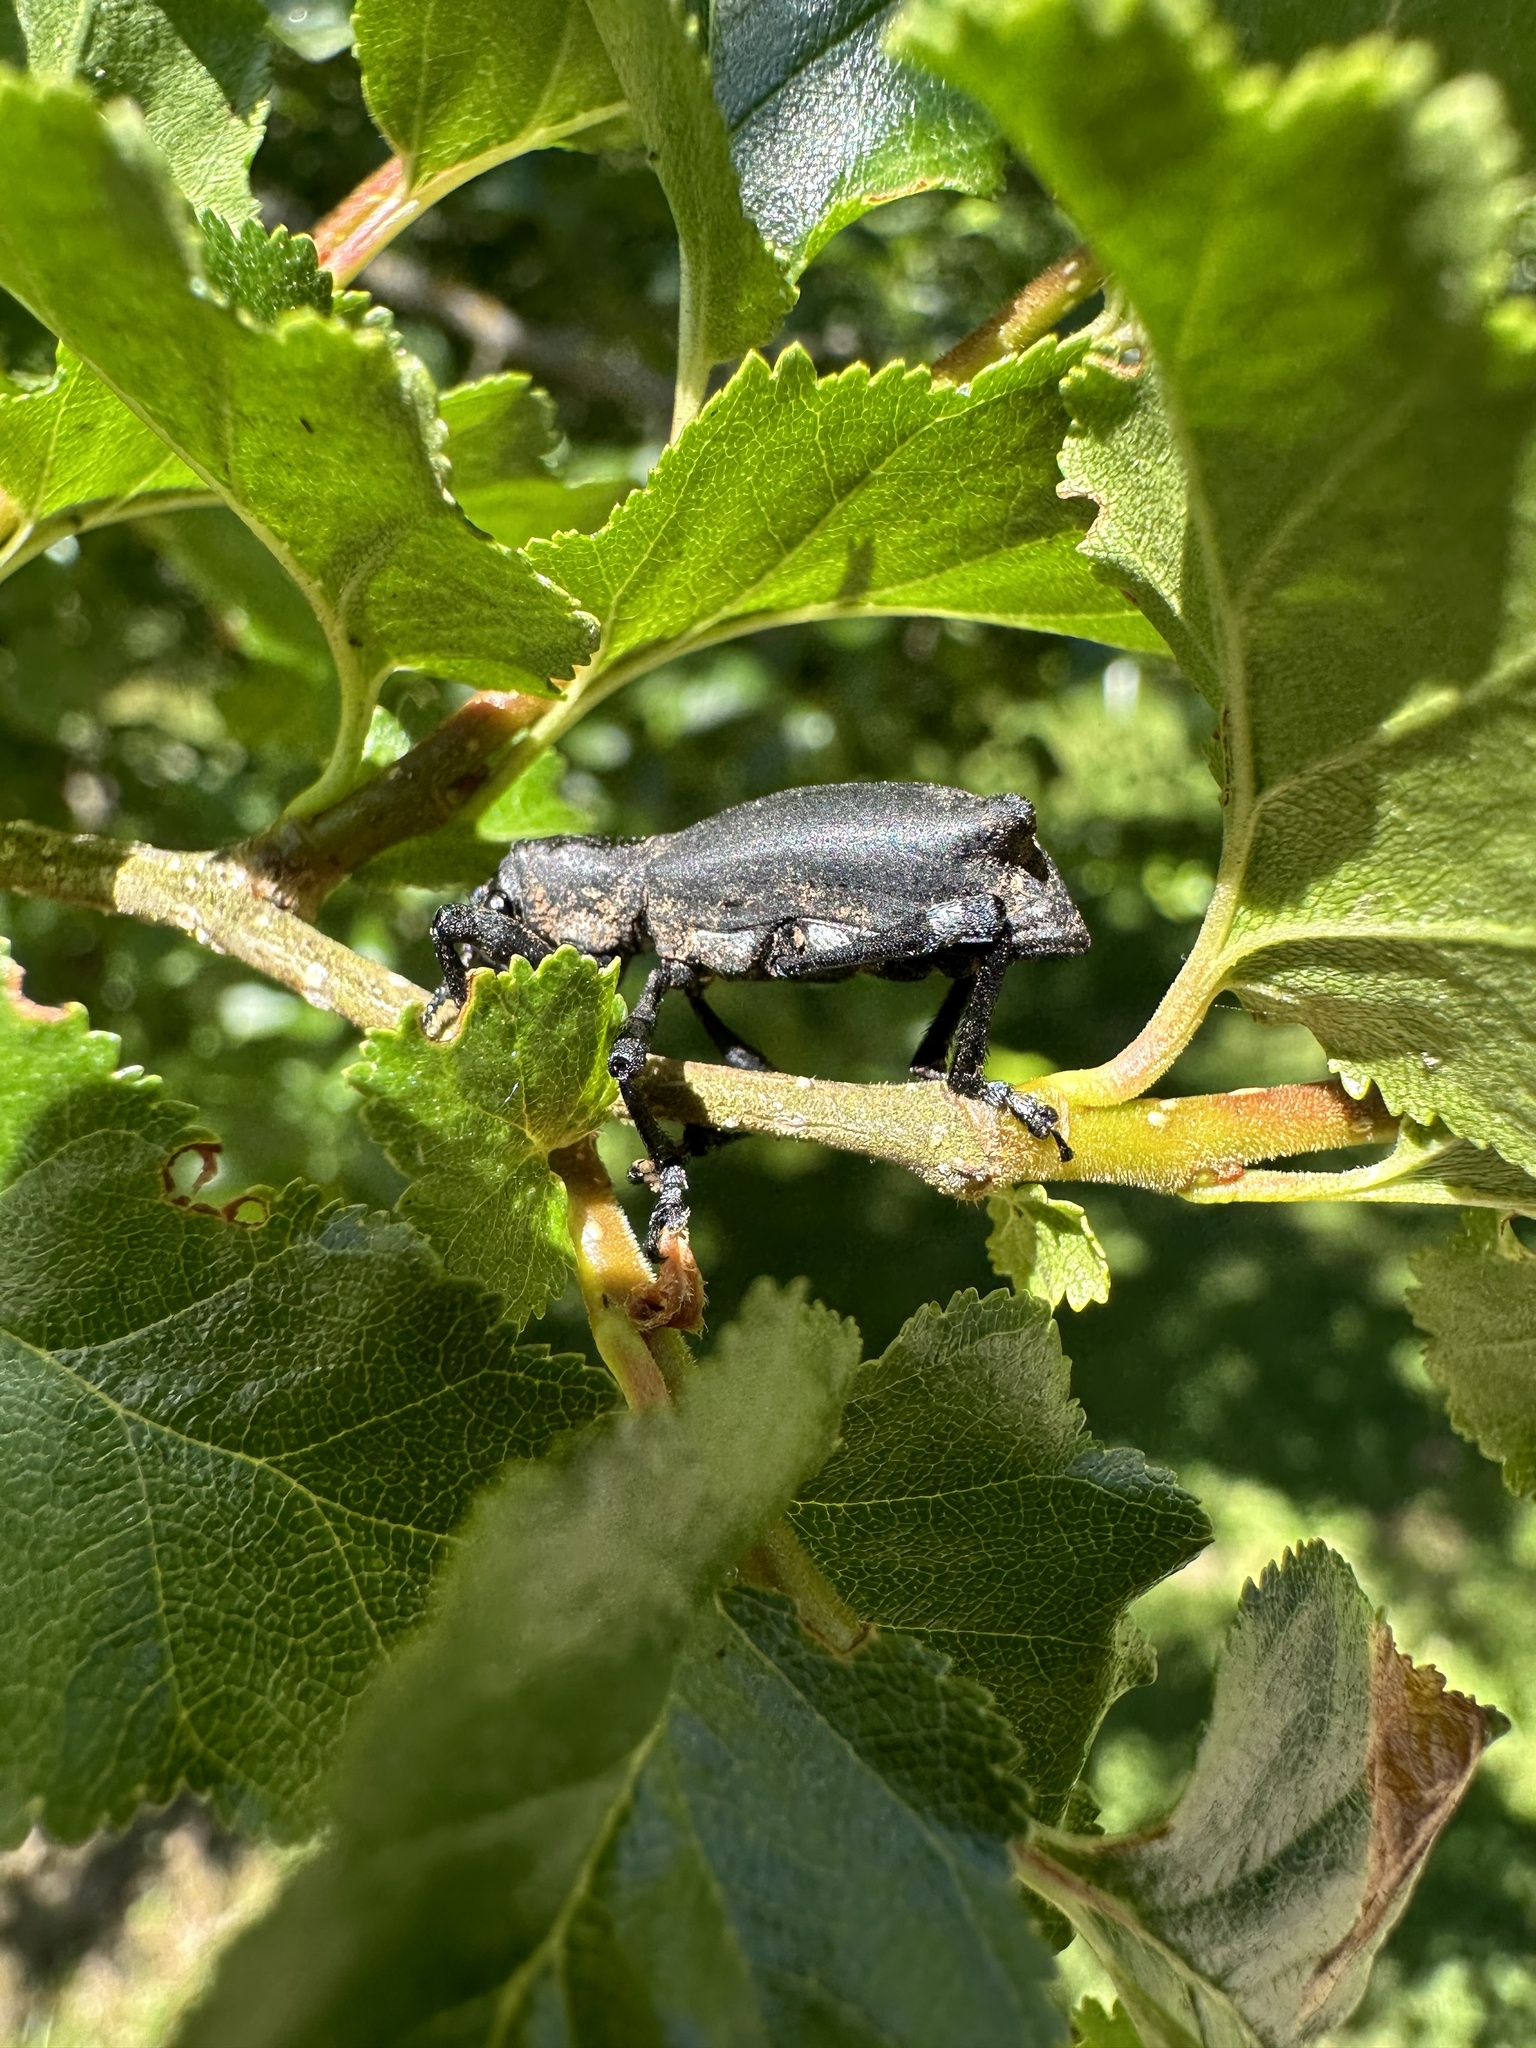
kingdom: Animalia
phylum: Arthropoda
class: Insecta
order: Coleoptera
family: Curculionidae
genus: Aegorhinus
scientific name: Aegorhinus
